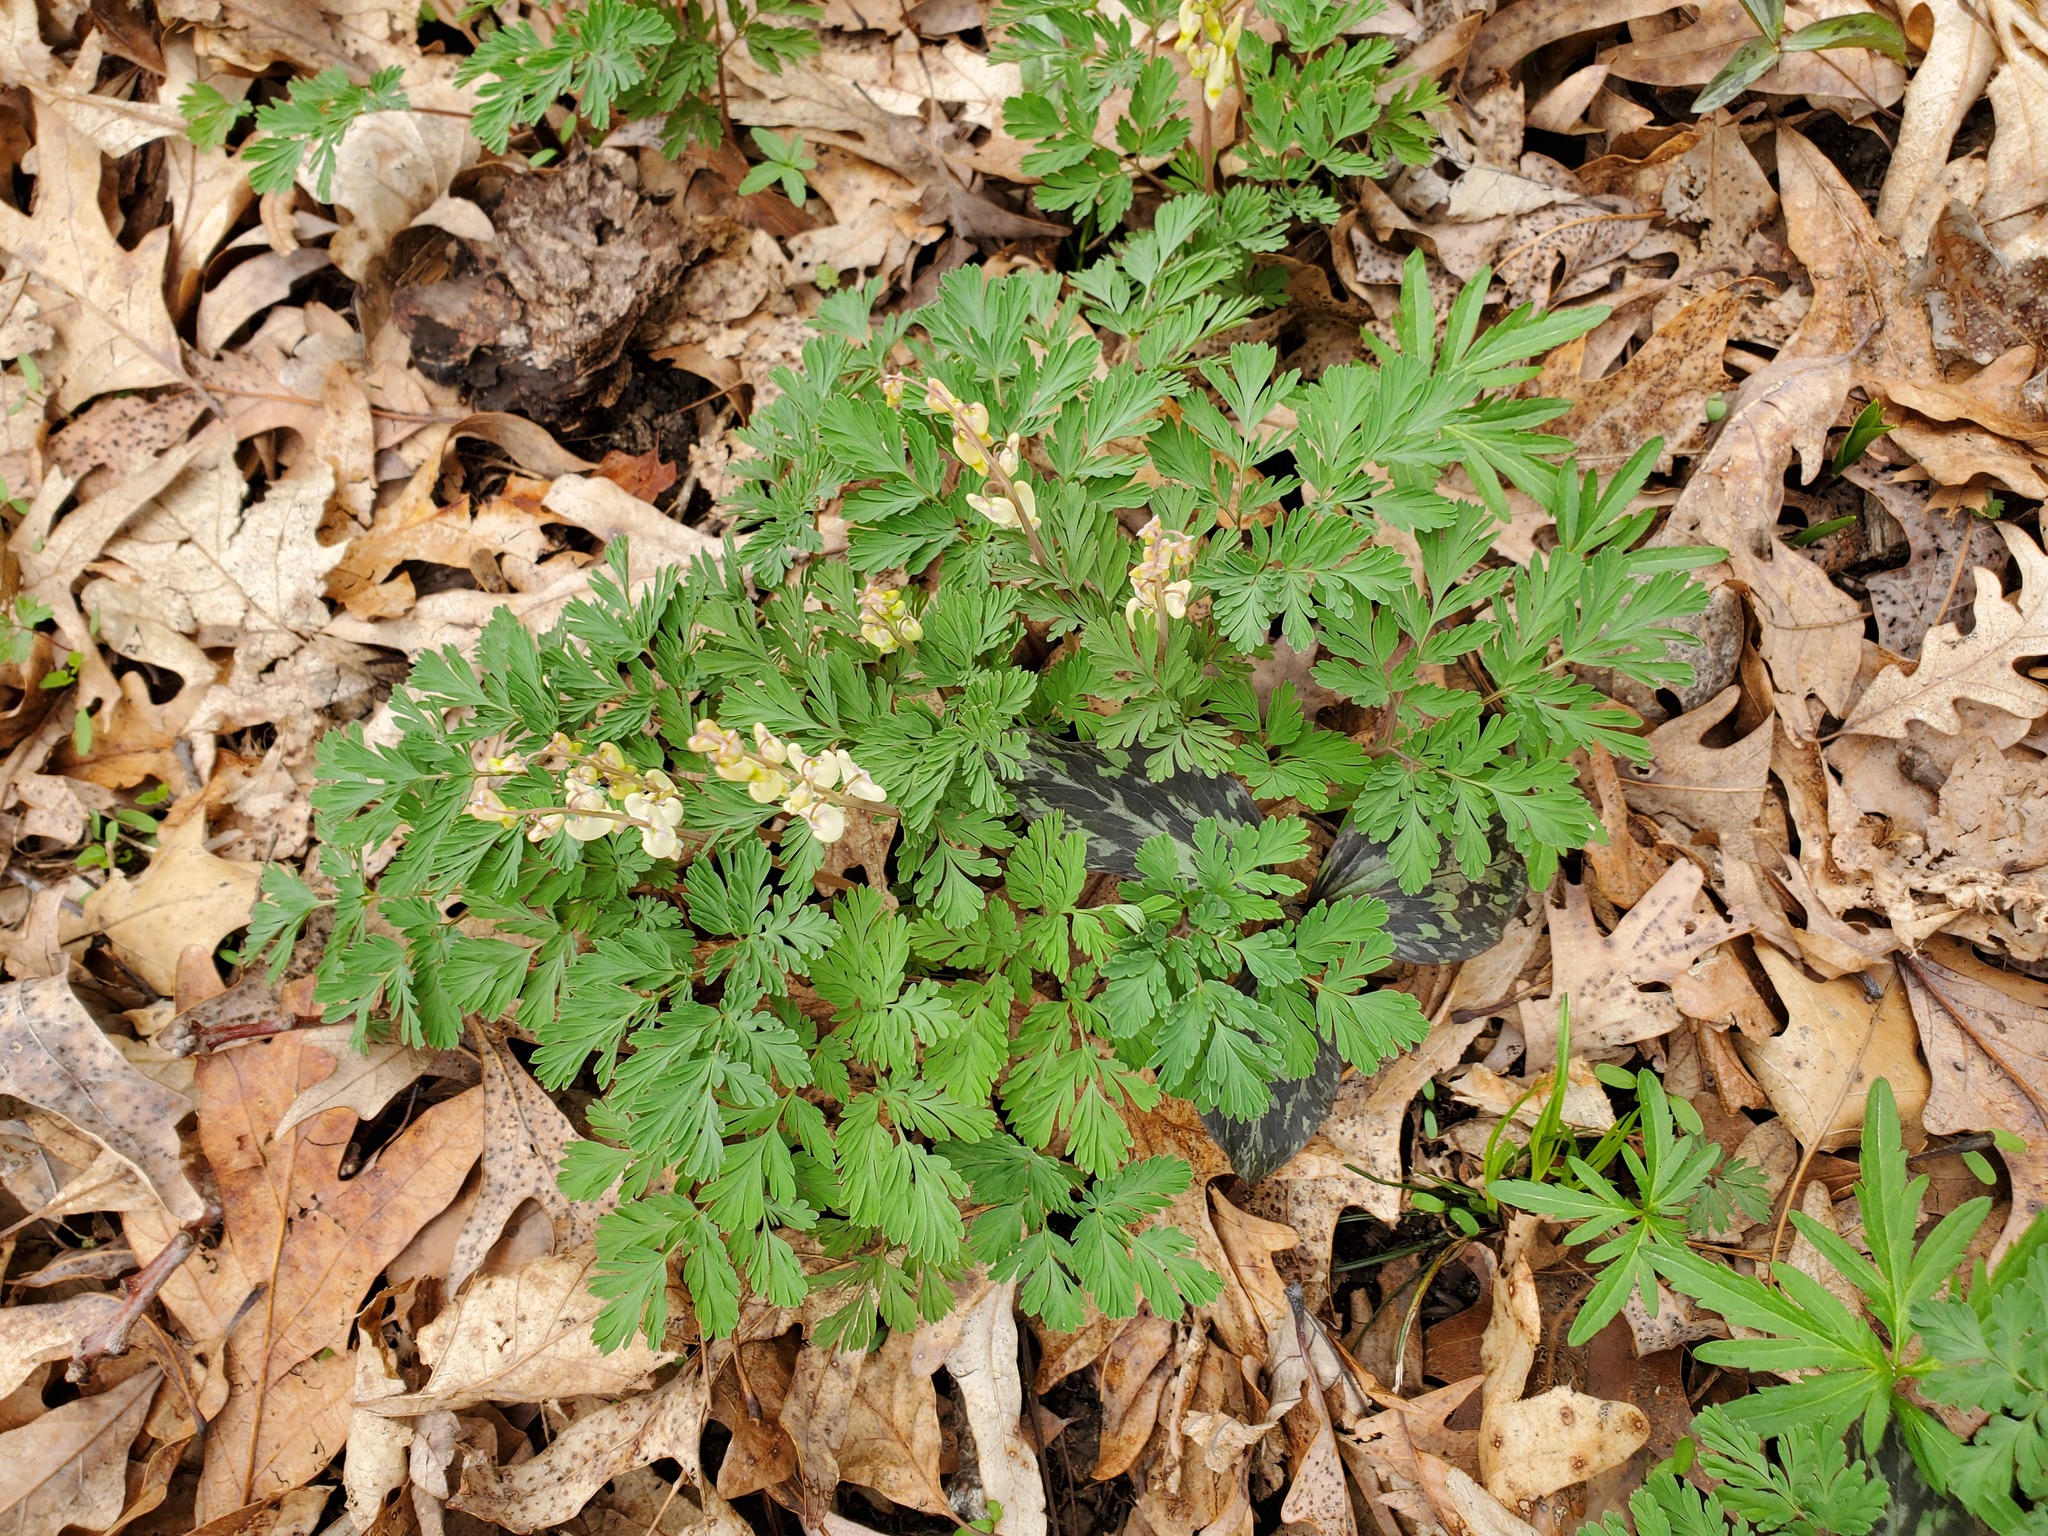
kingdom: Plantae
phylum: Tracheophyta
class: Magnoliopsida
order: Ranunculales
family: Papaveraceae
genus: Dicentra
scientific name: Dicentra cucullaria
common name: Dutchman's breeches
